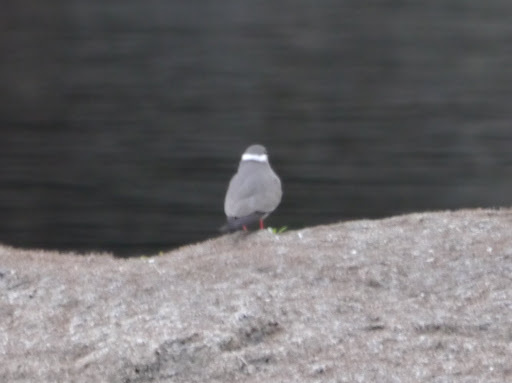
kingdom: Animalia
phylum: Chordata
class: Aves
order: Charadriiformes
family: Glareolidae
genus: Glareola
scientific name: Glareola nuchalis
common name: Rock pratincole
